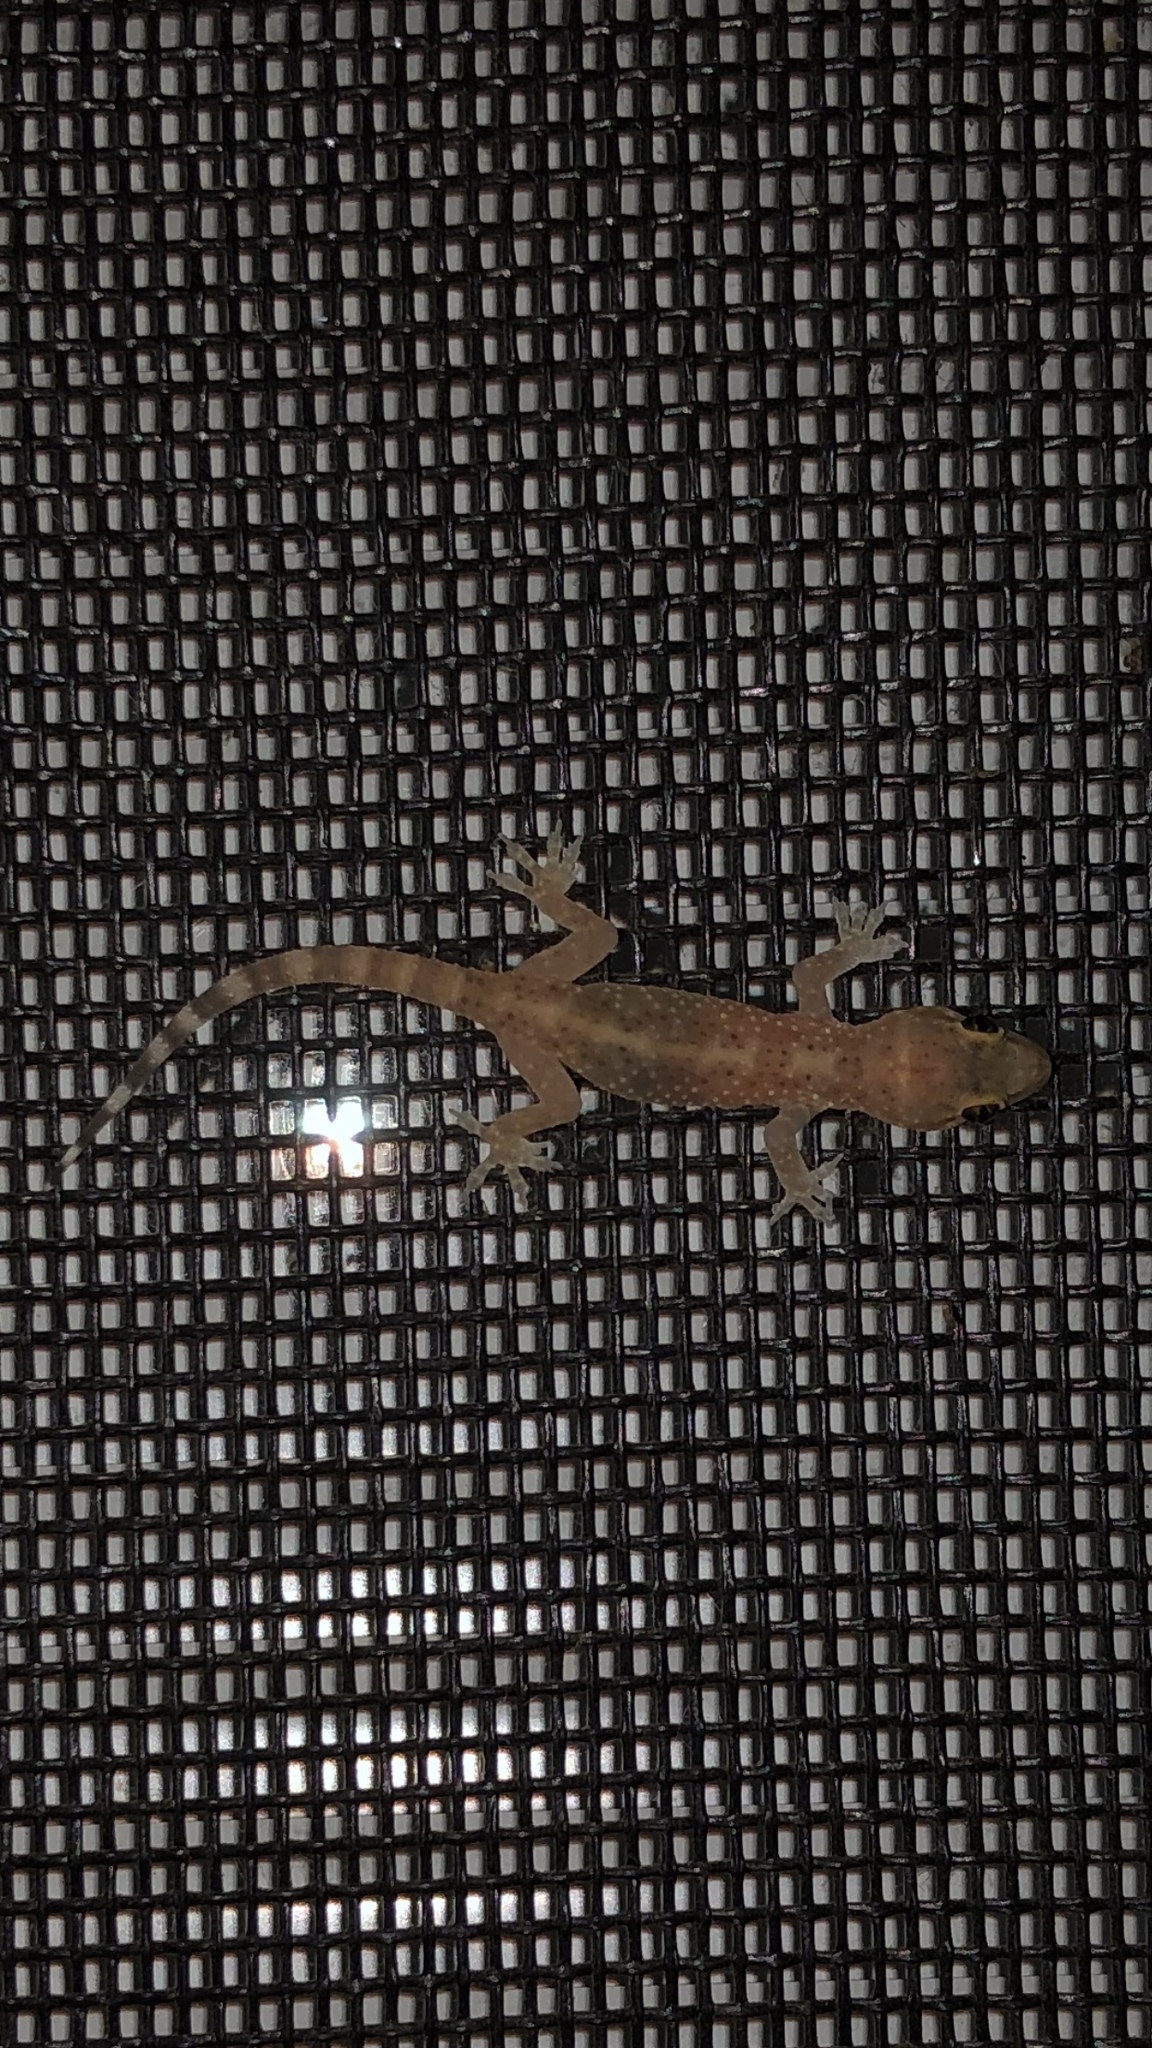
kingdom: Animalia
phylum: Chordata
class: Squamata
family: Gekkonidae
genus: Hemidactylus
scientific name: Hemidactylus turcicus
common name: Turkish gecko
